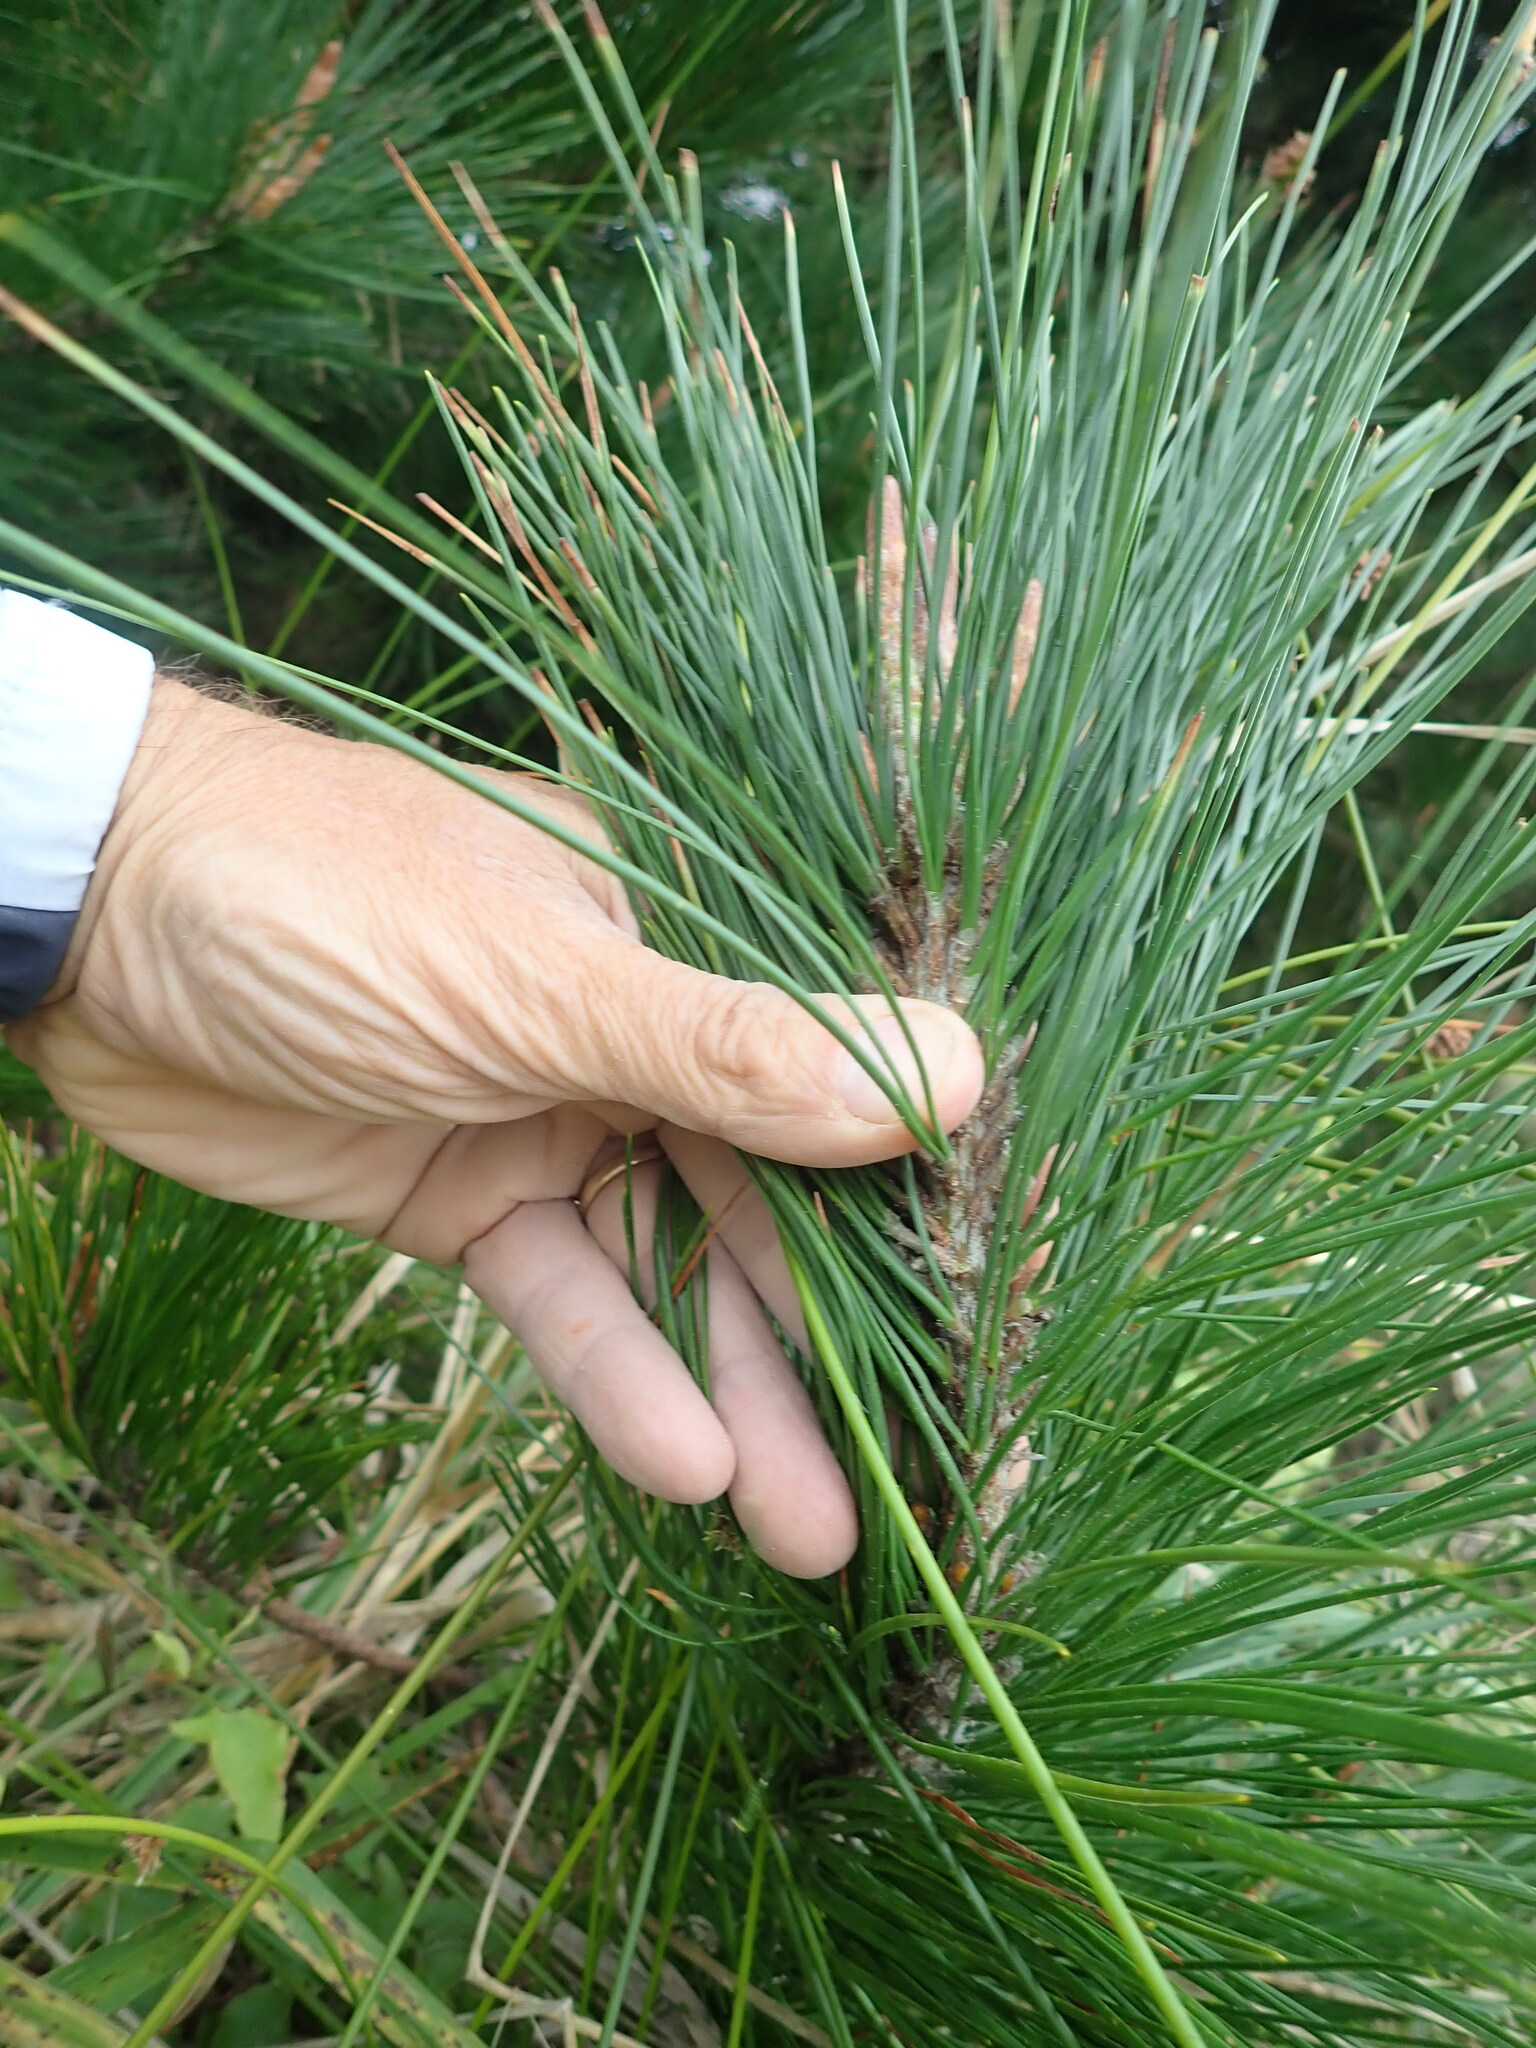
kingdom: Plantae
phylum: Tracheophyta
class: Pinopsida
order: Pinales
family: Pinaceae
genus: Pinus
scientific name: Pinus radiata
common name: Monterey pine
